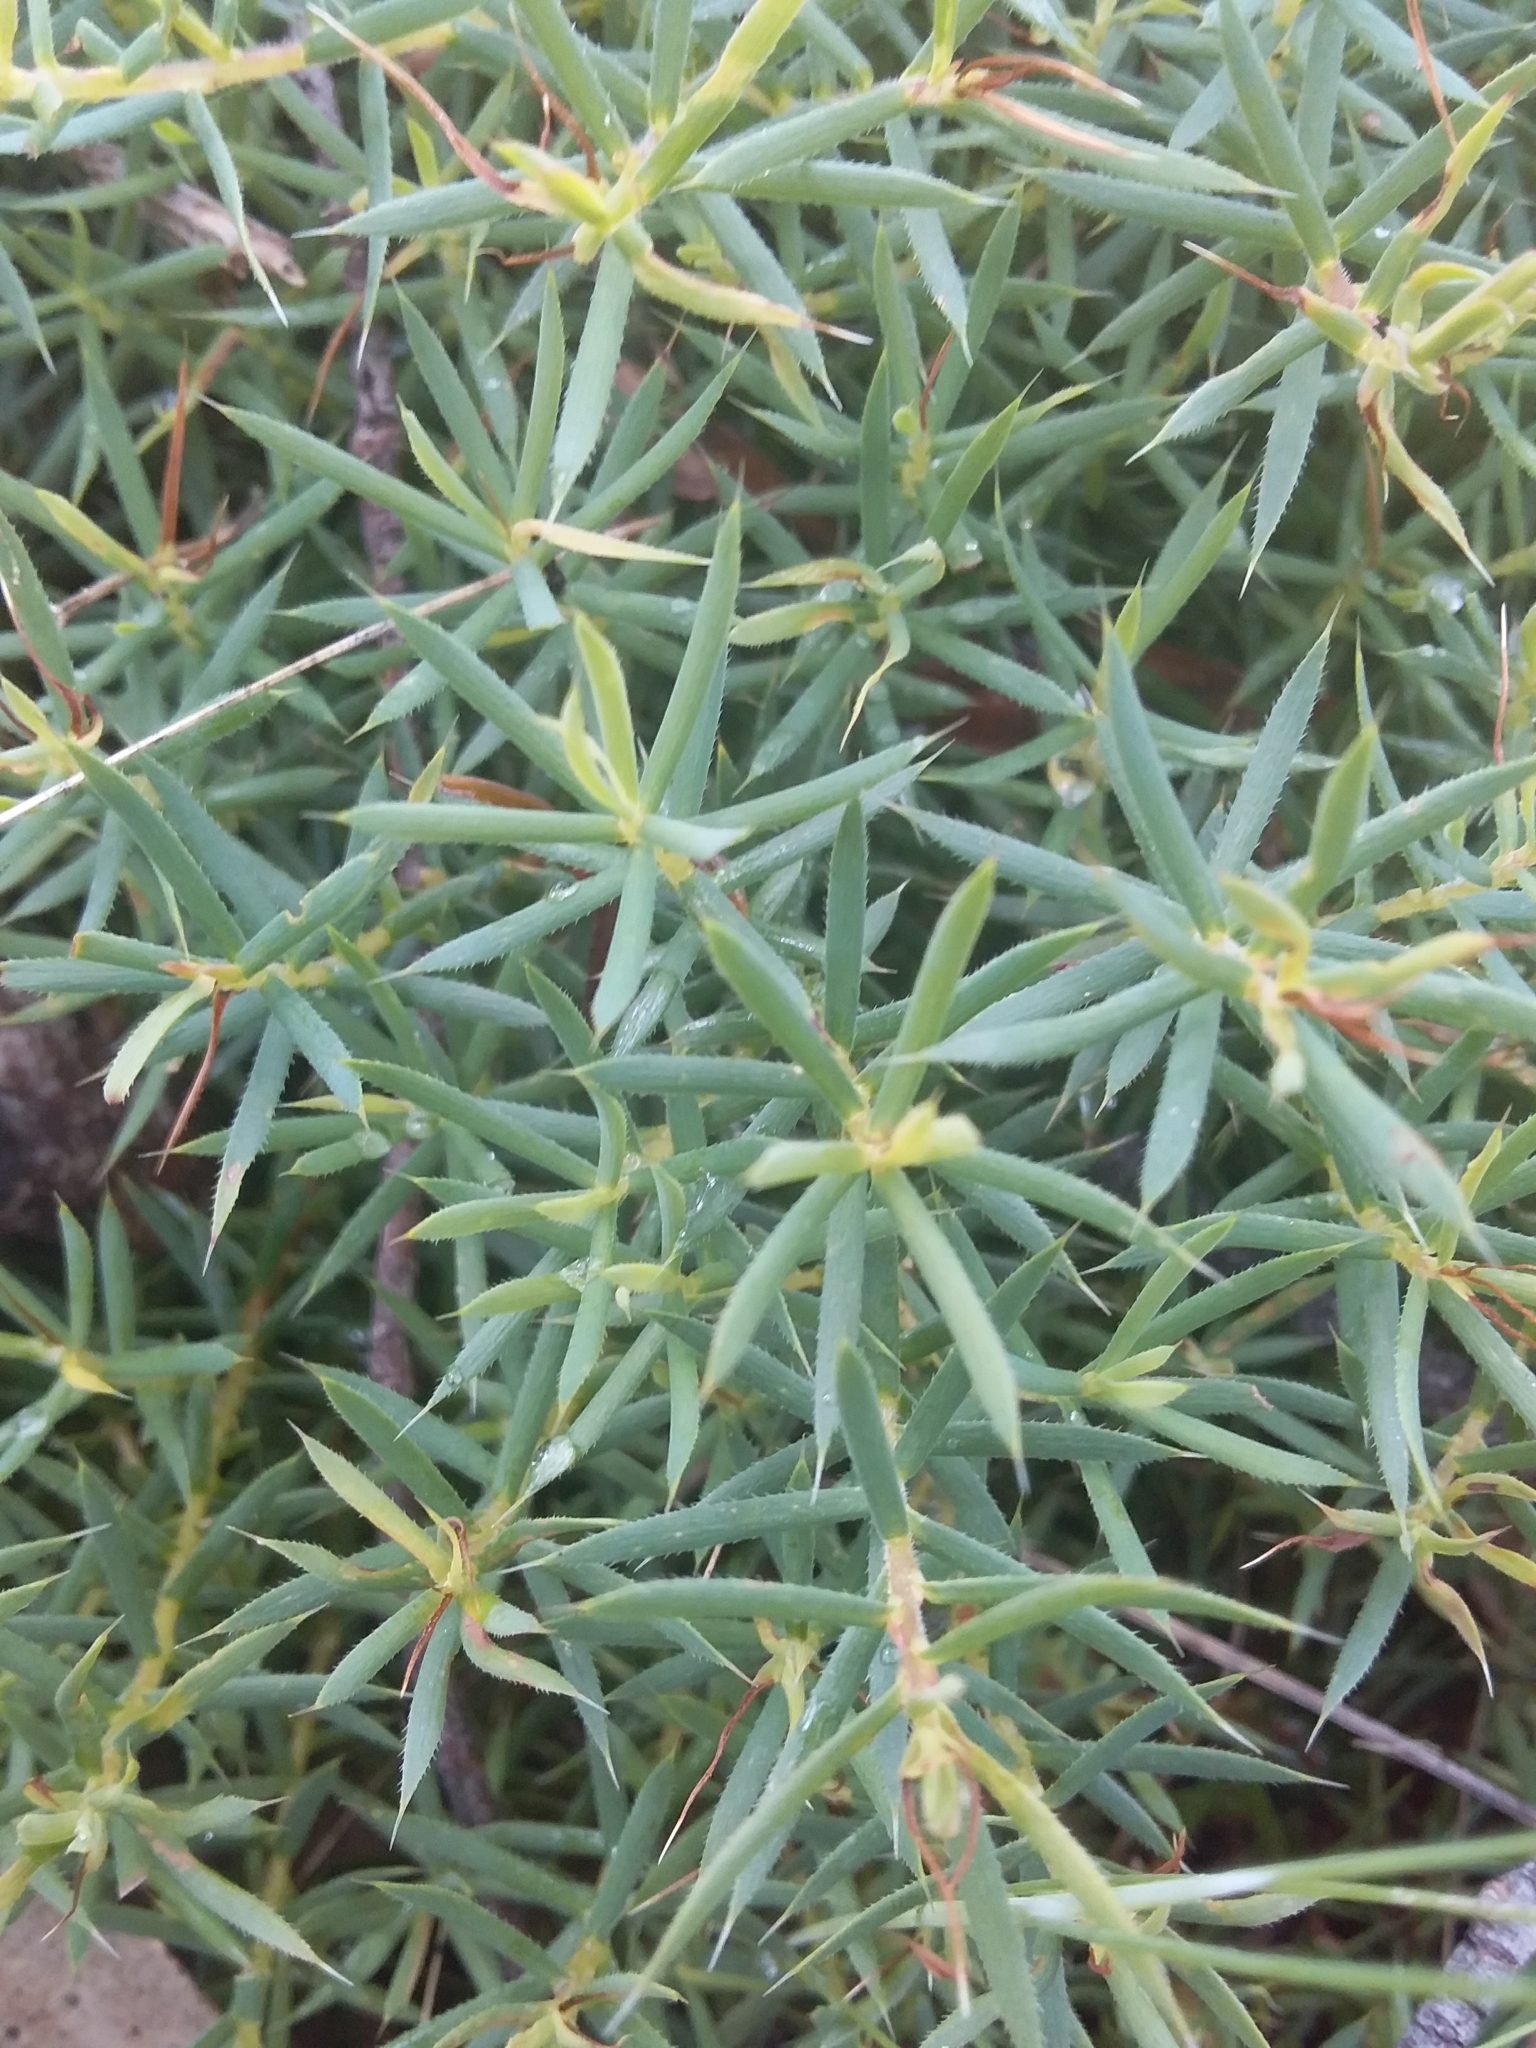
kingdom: Plantae
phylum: Tracheophyta
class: Magnoliopsida
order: Ericales
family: Ericaceae
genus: Styphelia
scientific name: Styphelia humifusa
